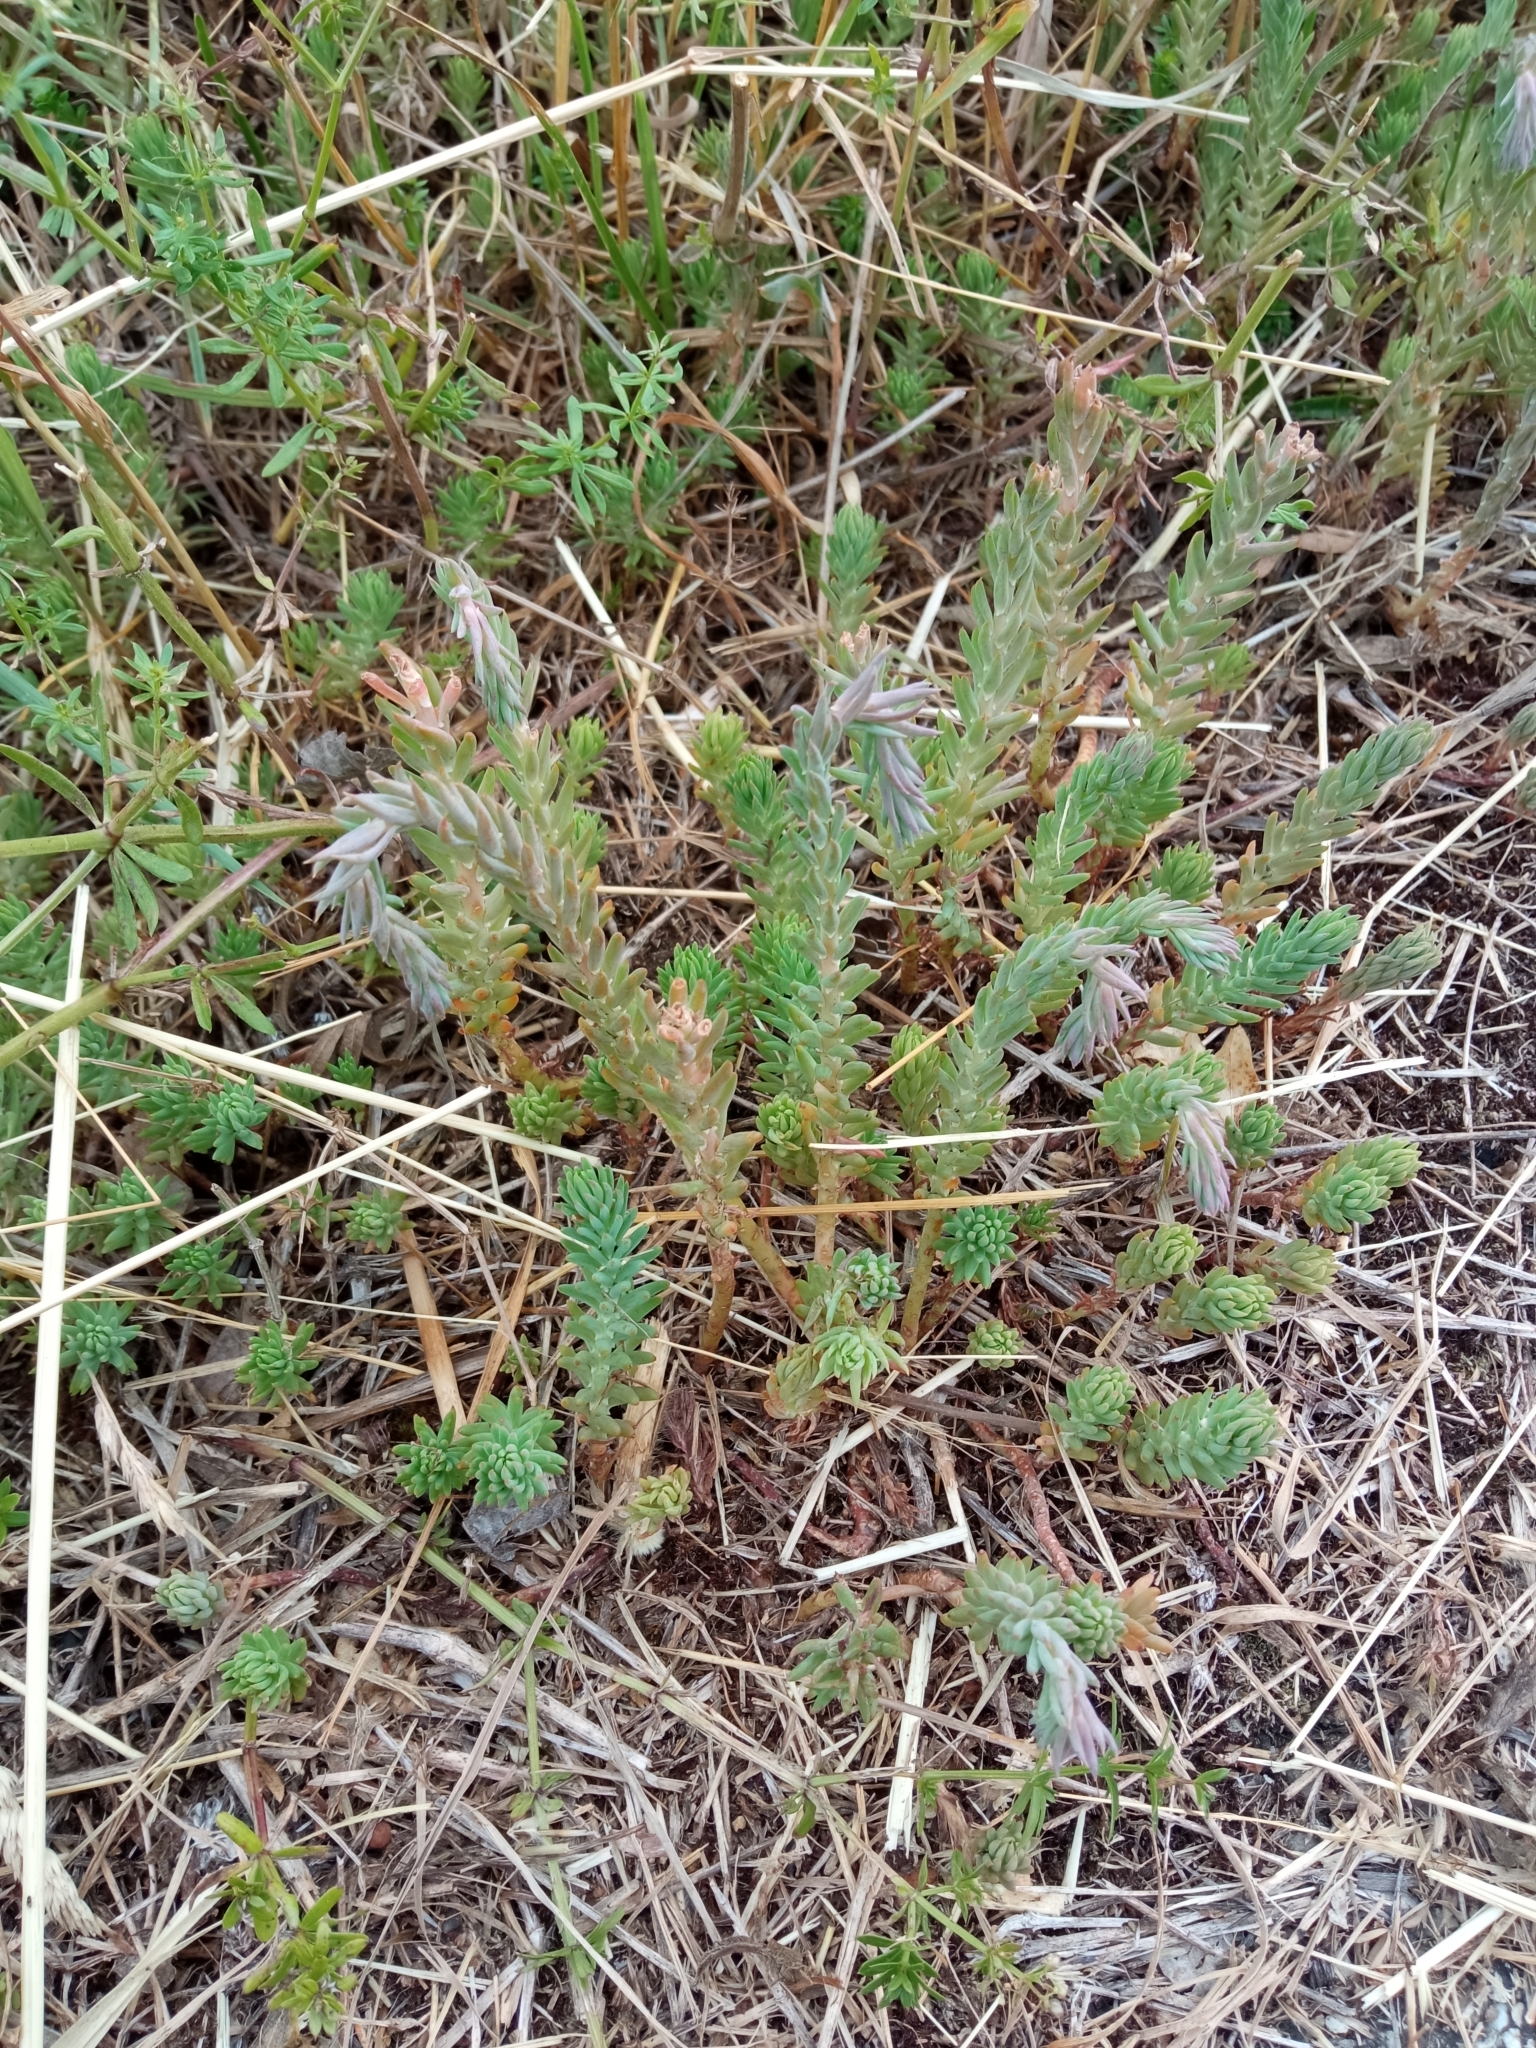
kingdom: Plantae
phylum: Tracheophyta
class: Magnoliopsida
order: Saxifragales
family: Crassulaceae
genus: Petrosedum
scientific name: Petrosedum rupestre
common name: Jenny's stonecrop
